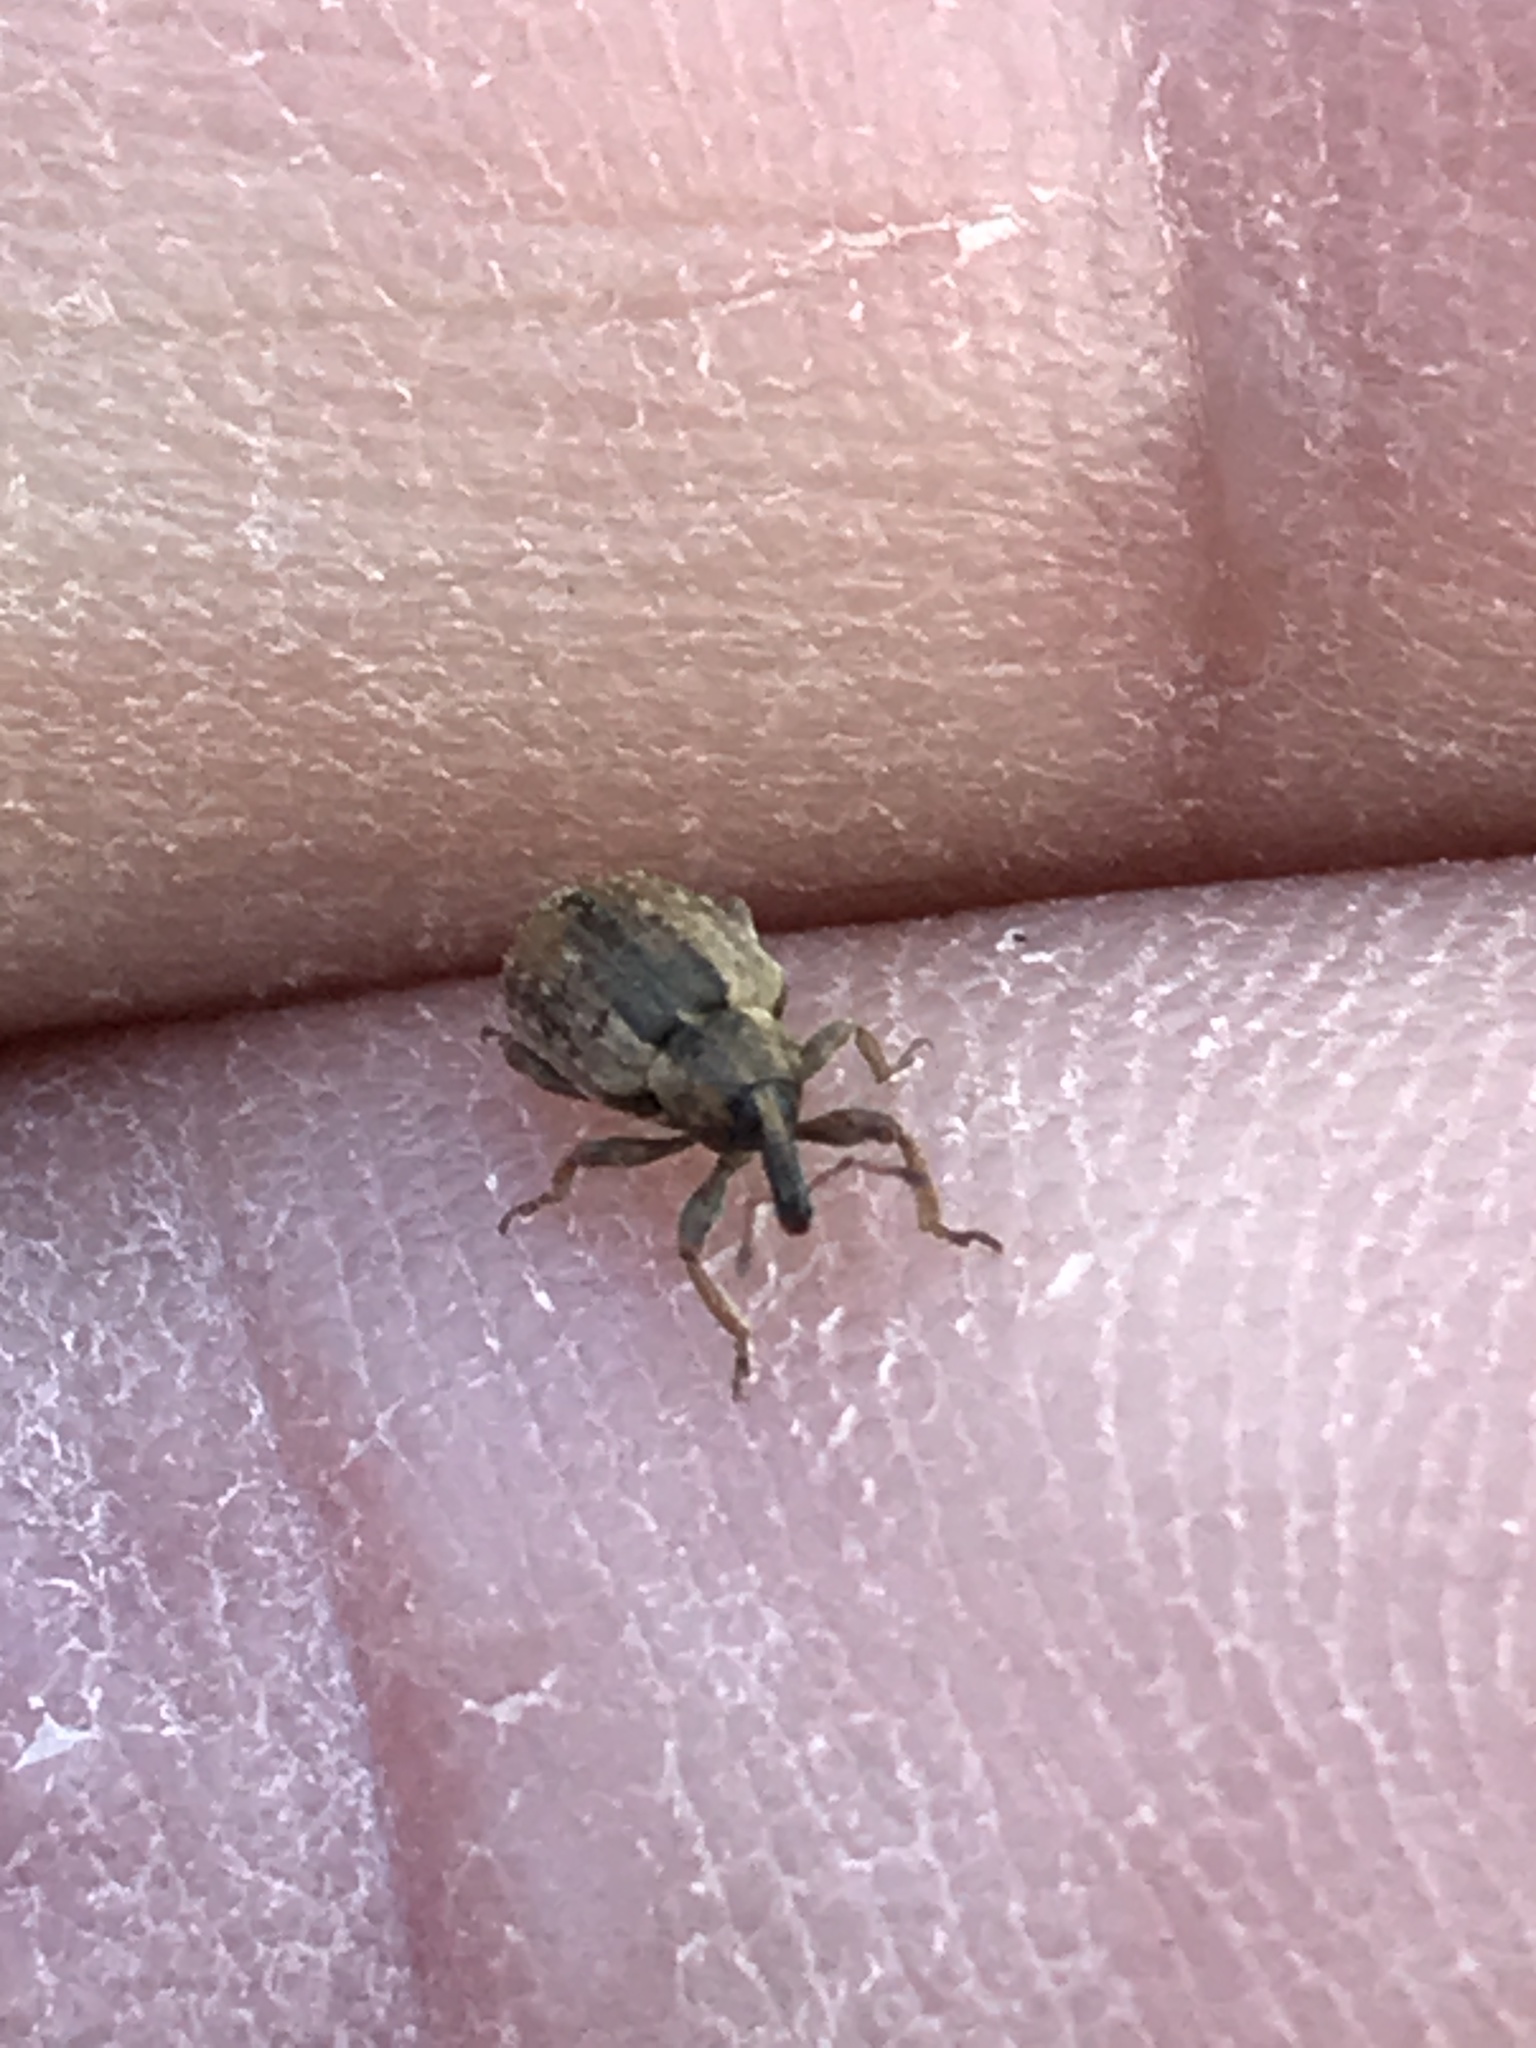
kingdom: Animalia
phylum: Arthropoda
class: Insecta
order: Coleoptera
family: Curculionidae
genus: Hypera
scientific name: Hypera postica
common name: Weevil
